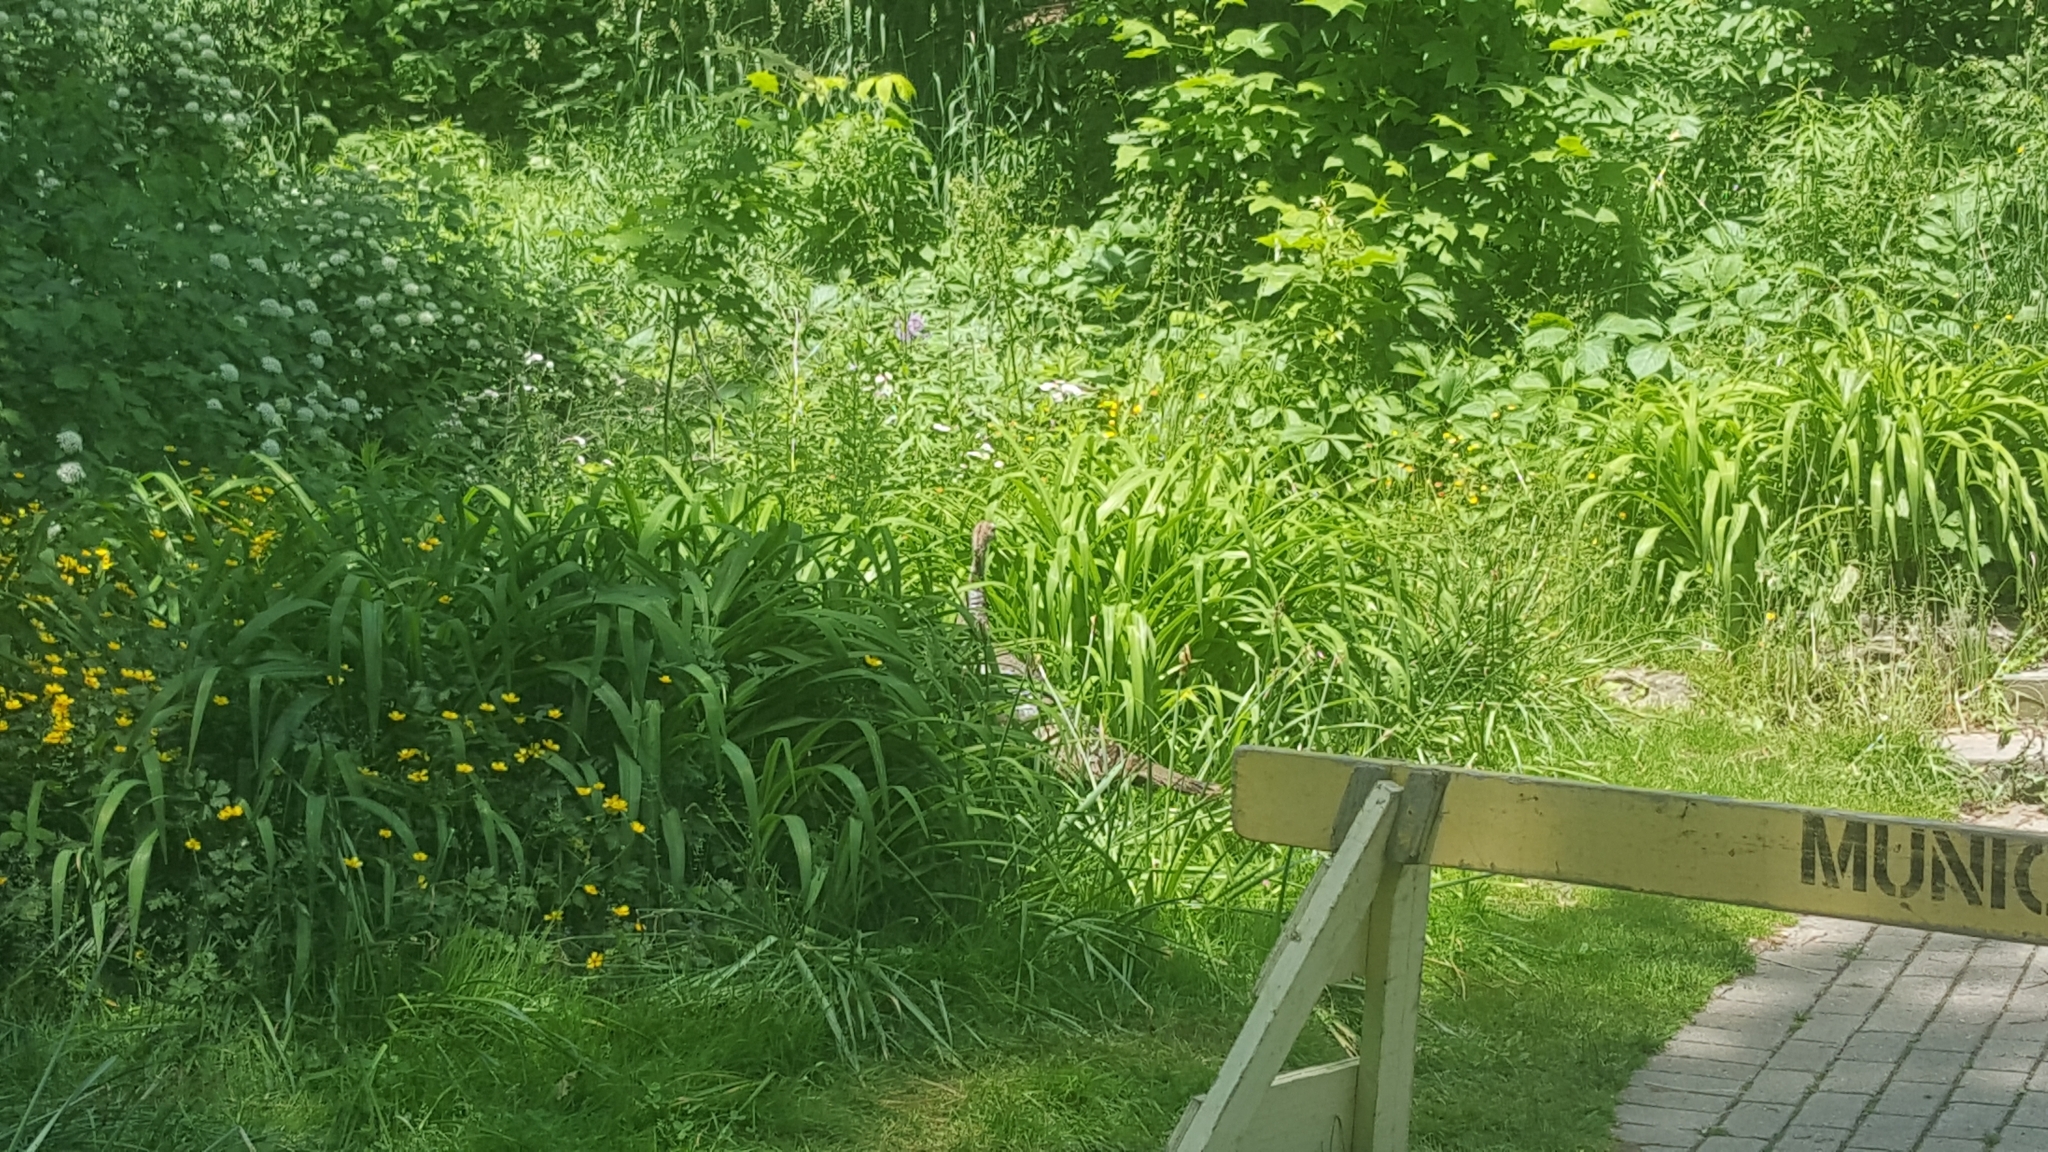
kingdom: Animalia
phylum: Chordata
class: Aves
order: Galliformes
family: Phasianidae
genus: Meleagris
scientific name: Meleagris gallopavo
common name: Wild turkey
